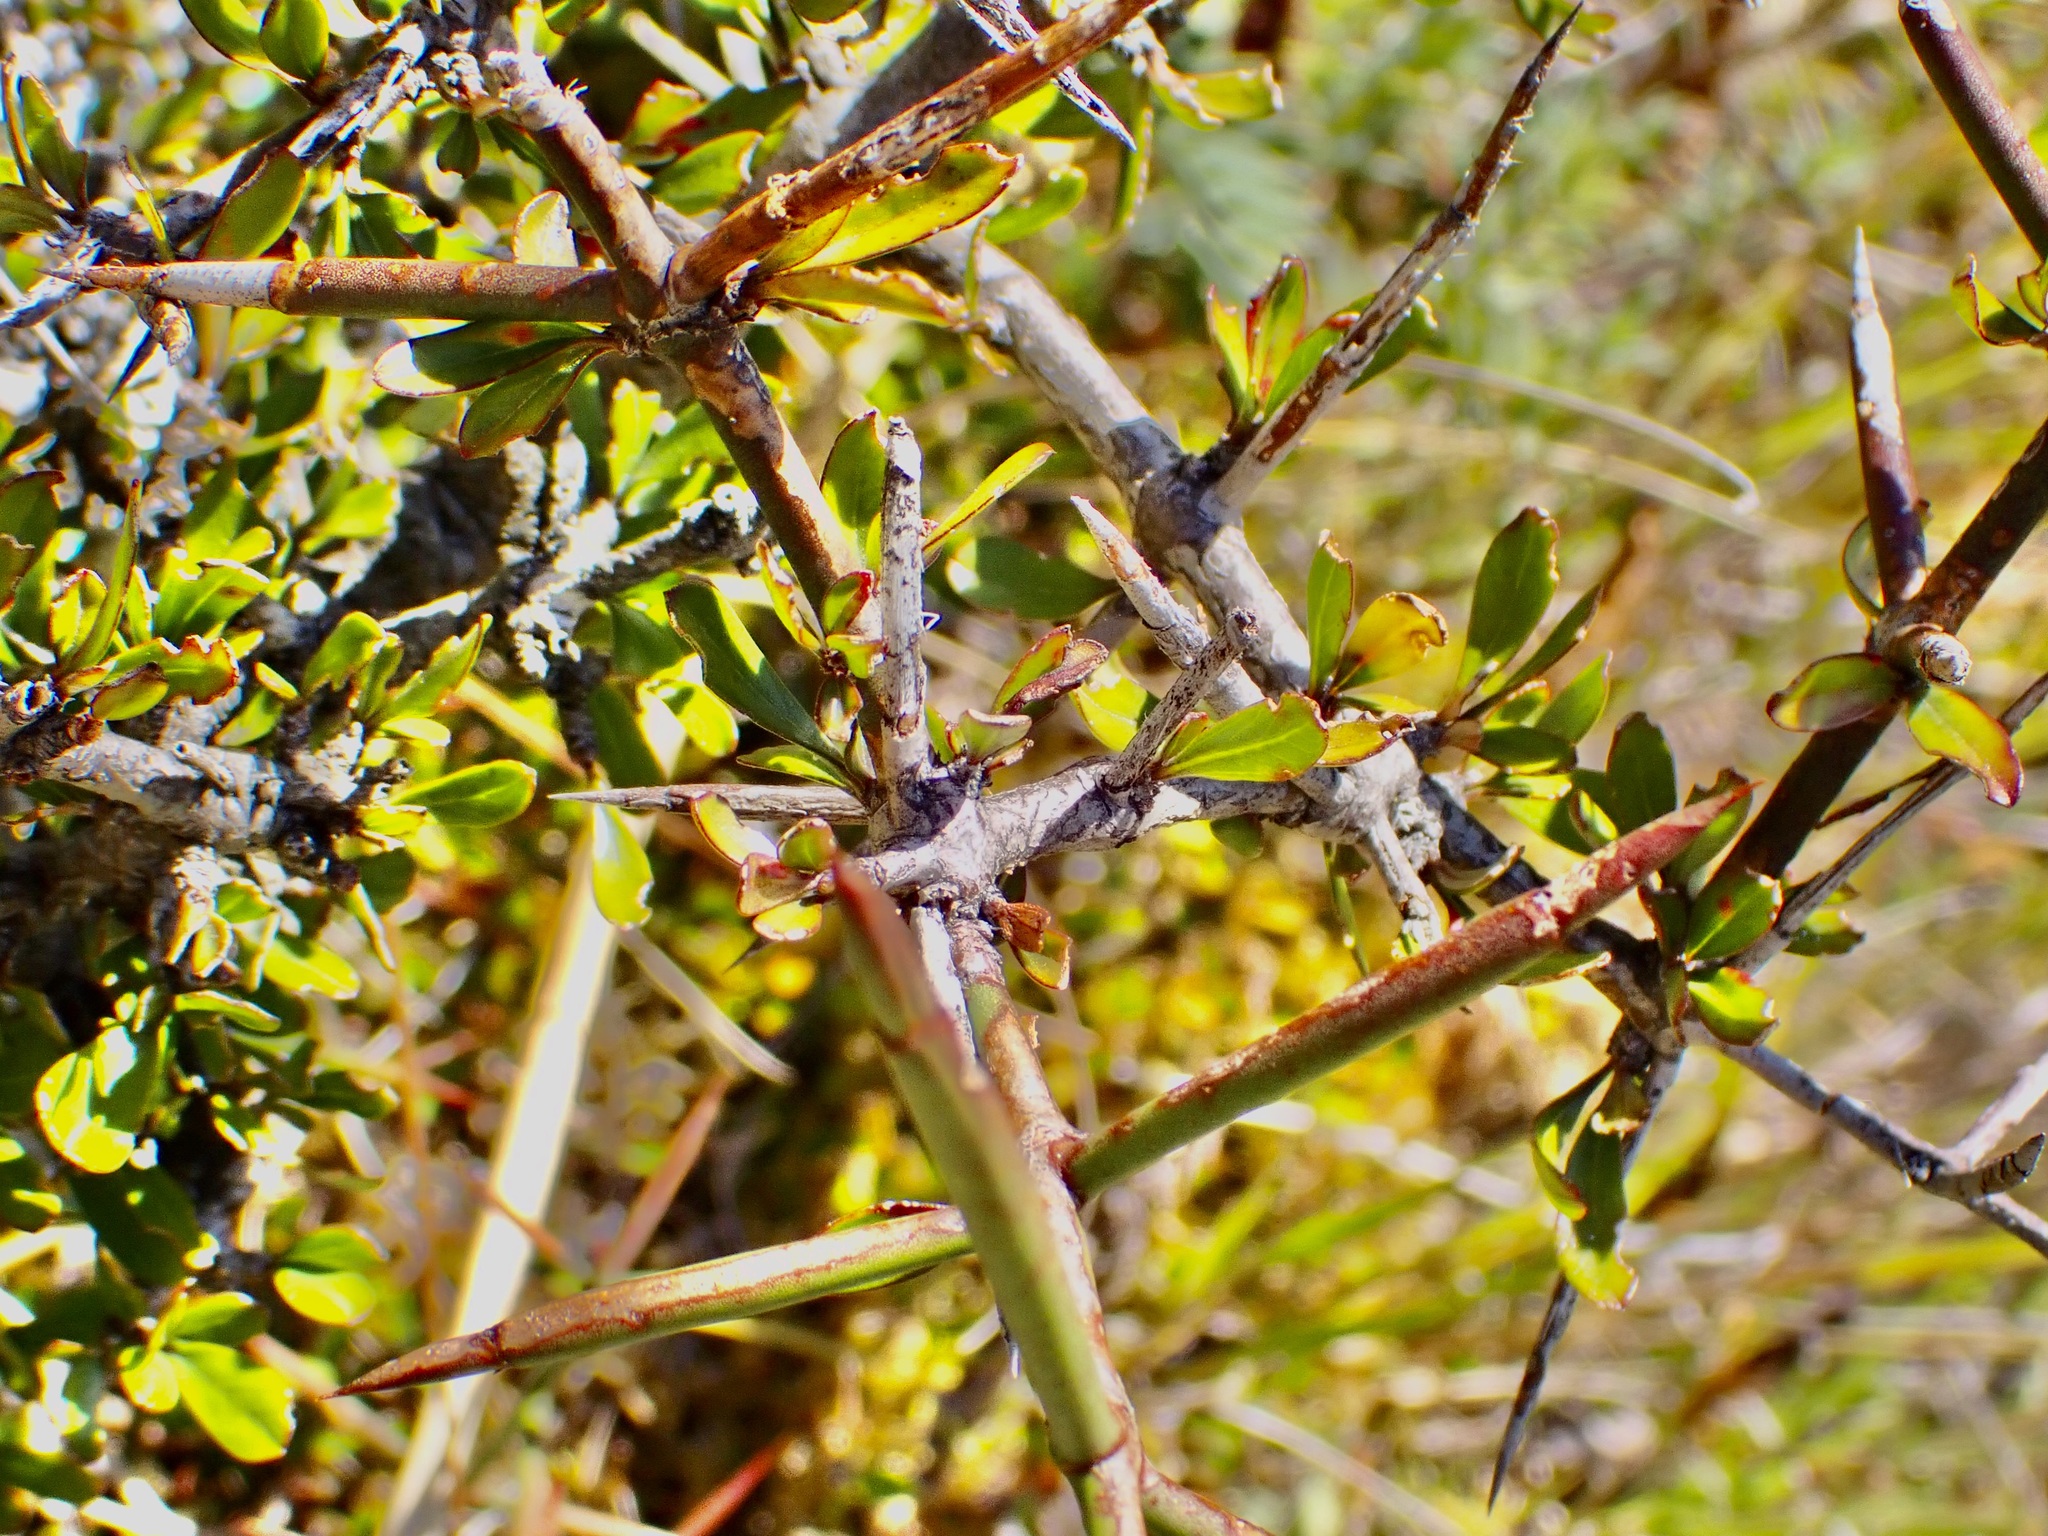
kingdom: Plantae
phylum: Tracheophyta
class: Magnoliopsida
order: Rosales
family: Rhamnaceae
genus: Discaria
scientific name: Discaria toumatou
